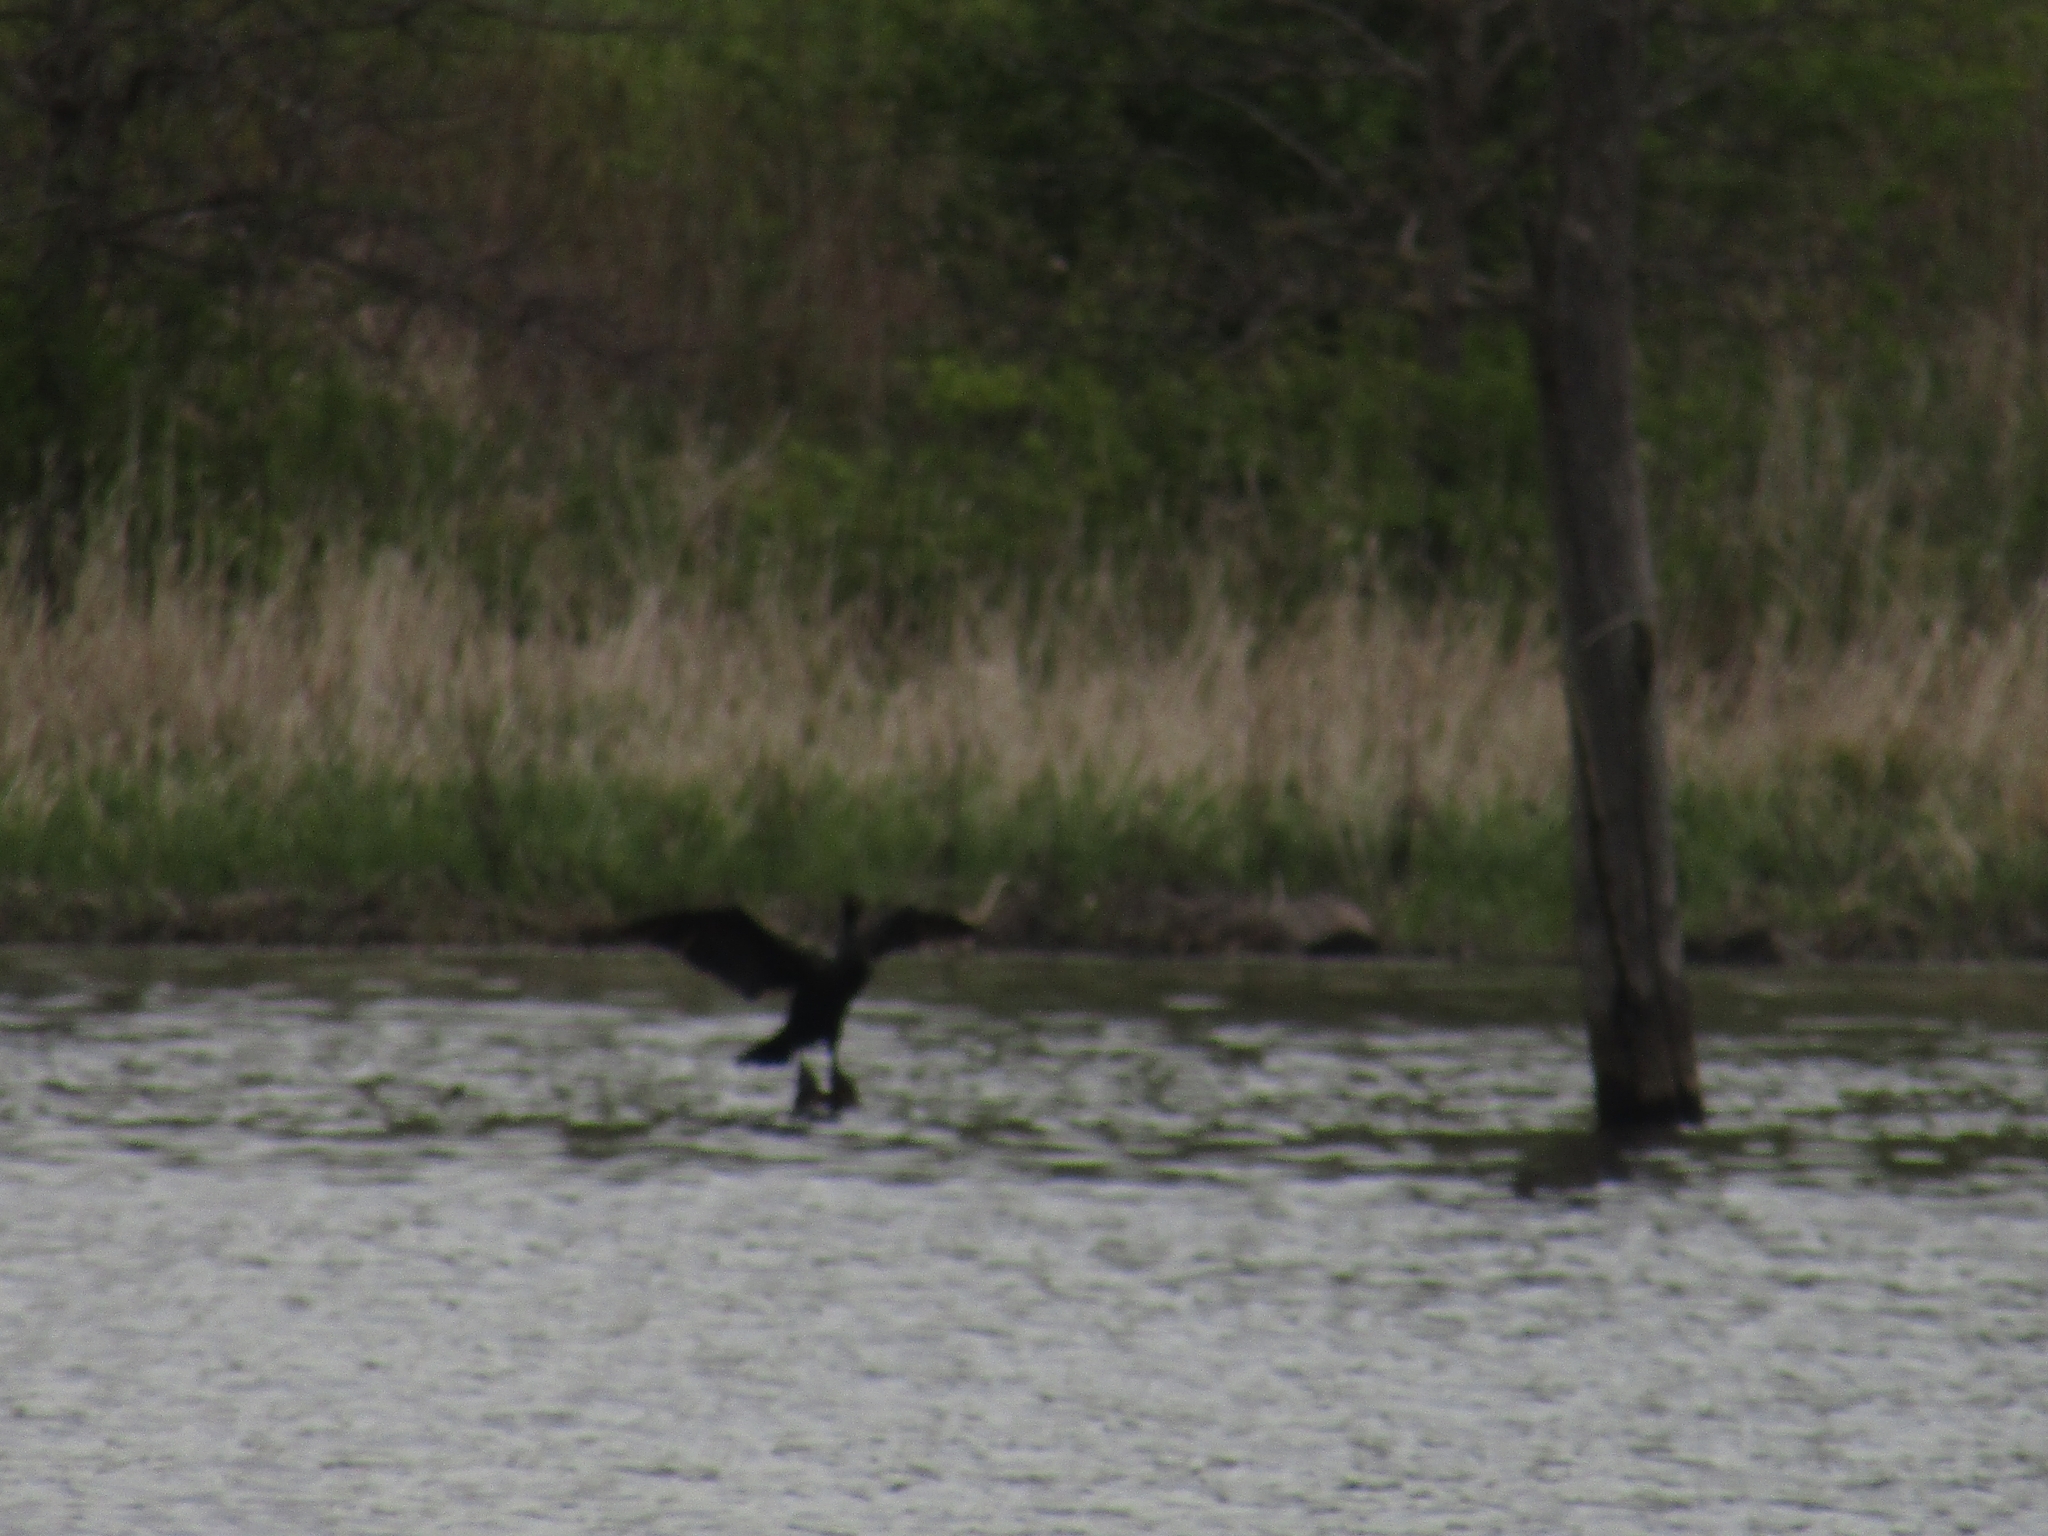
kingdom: Animalia
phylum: Chordata
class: Aves
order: Suliformes
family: Phalacrocoracidae
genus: Phalacrocorax
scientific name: Phalacrocorax auritus
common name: Double-crested cormorant
